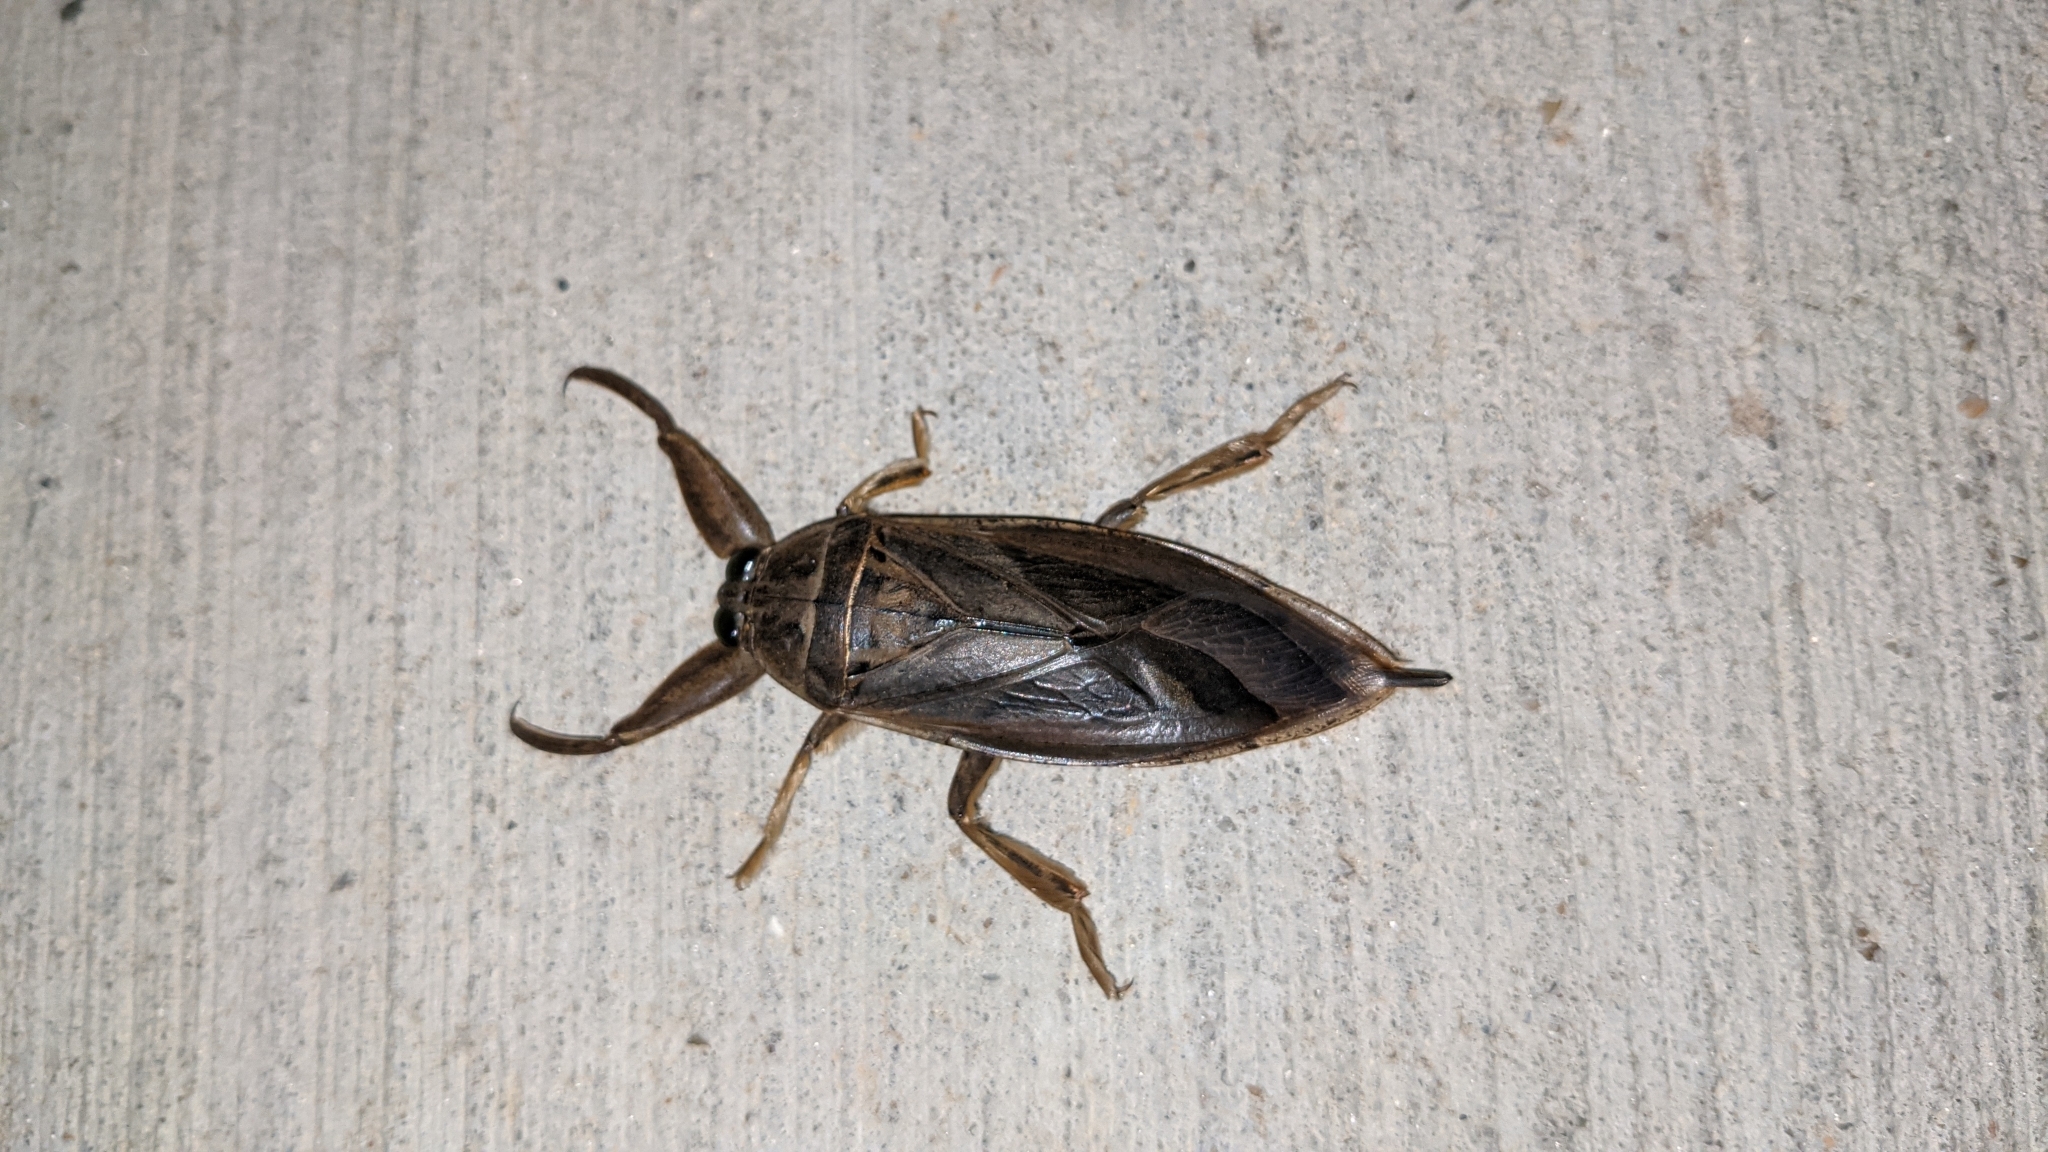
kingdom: Animalia
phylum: Arthropoda
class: Insecta
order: Hemiptera
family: Belostomatidae
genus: Lethocerus
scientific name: Lethocerus uhleri
